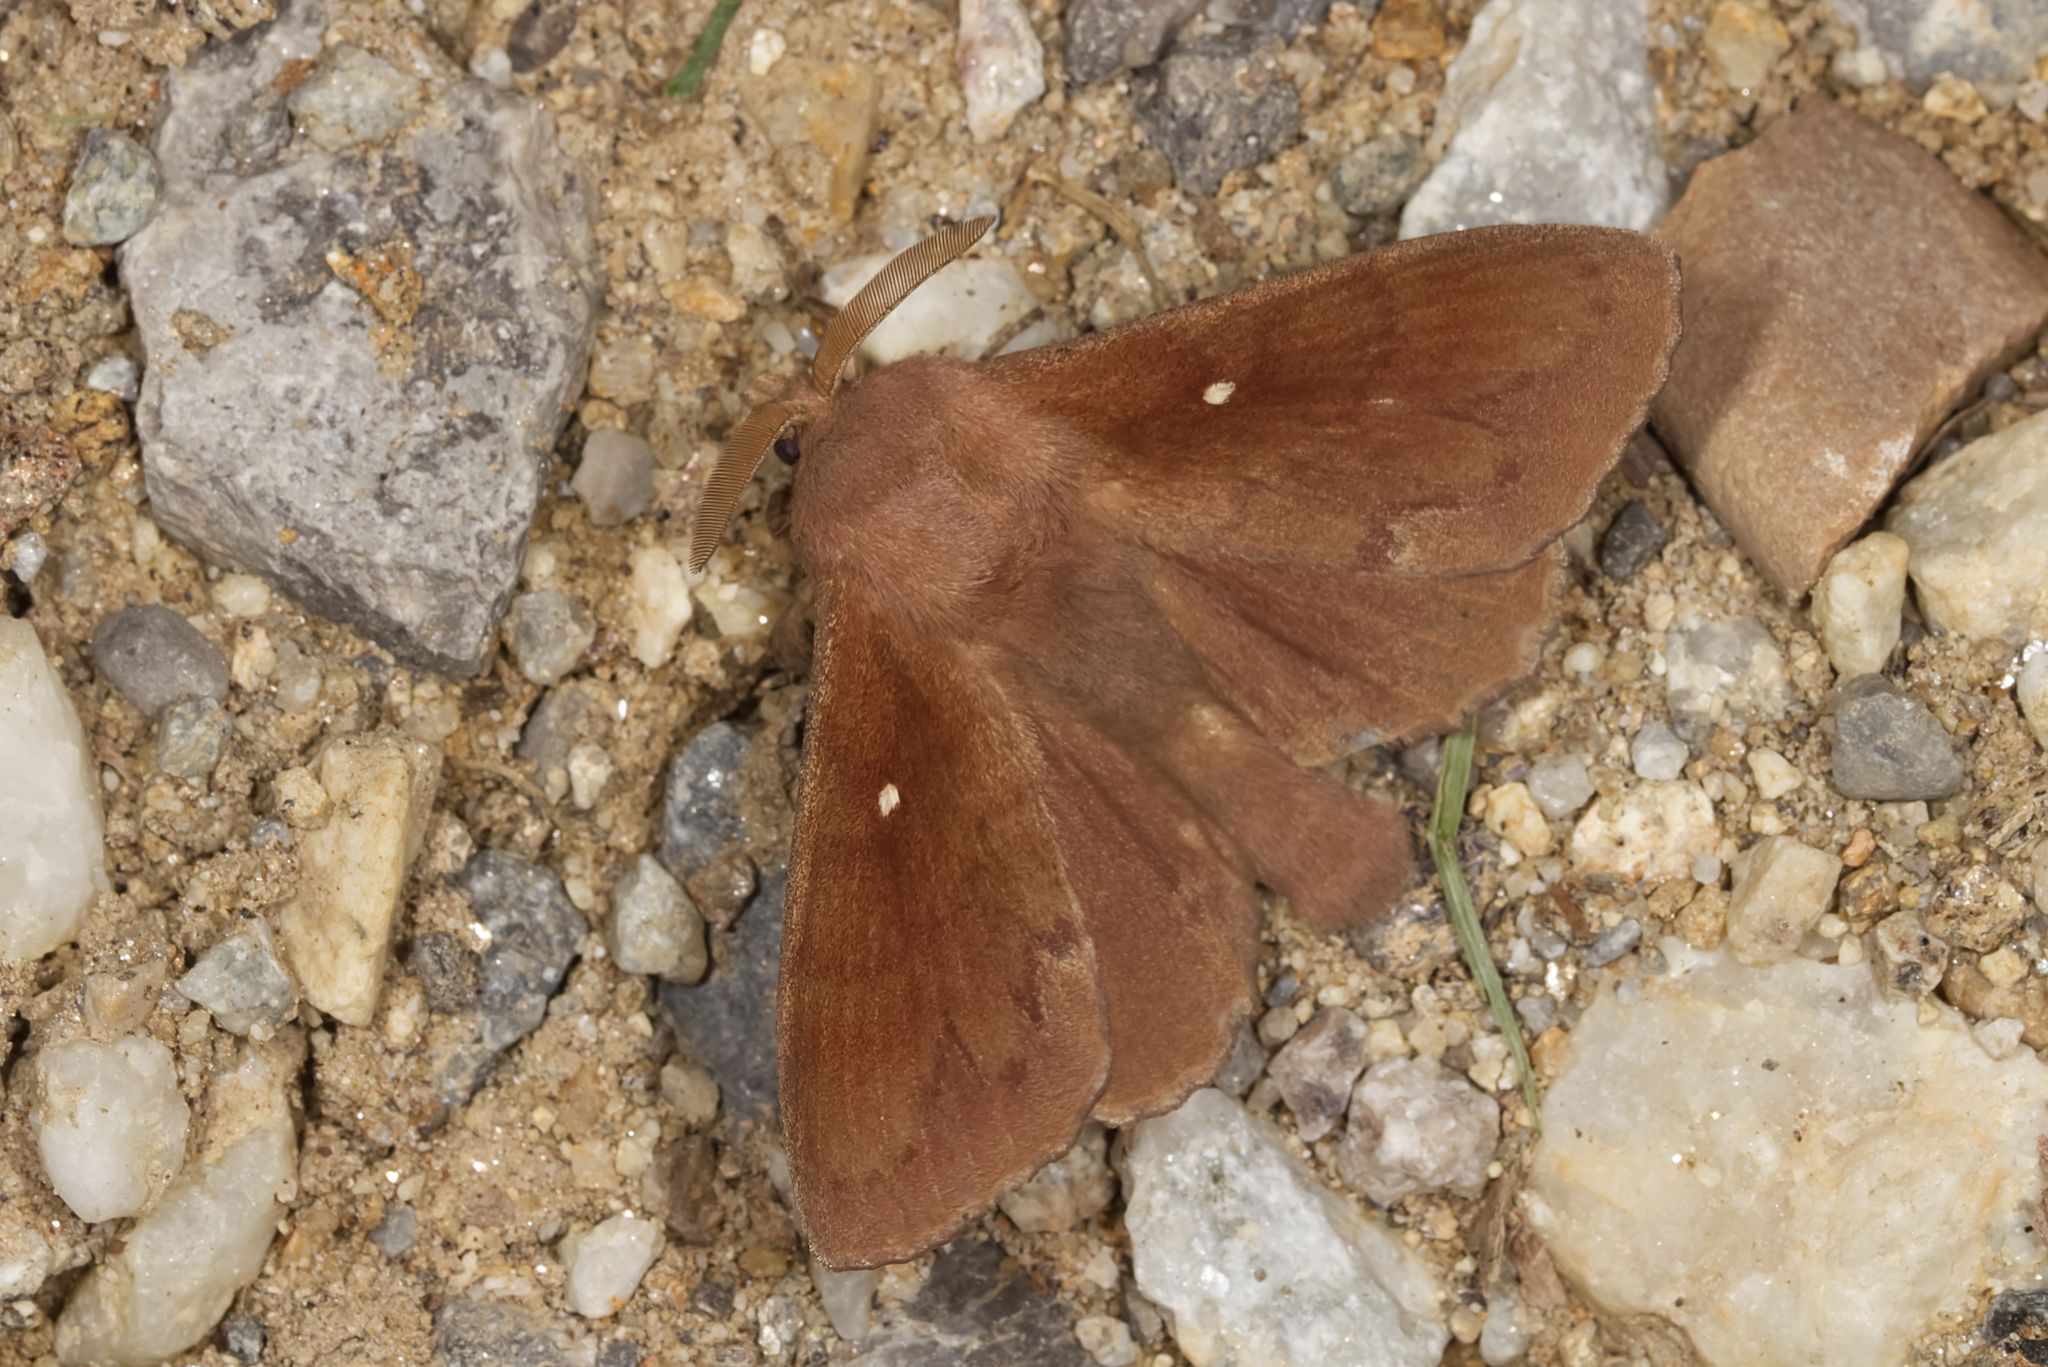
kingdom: Animalia
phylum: Arthropoda
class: Insecta
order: Lepidoptera
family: Lasiocampidae
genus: Dendrolimus
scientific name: Dendrolimus pini
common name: Pine-tree lappet
